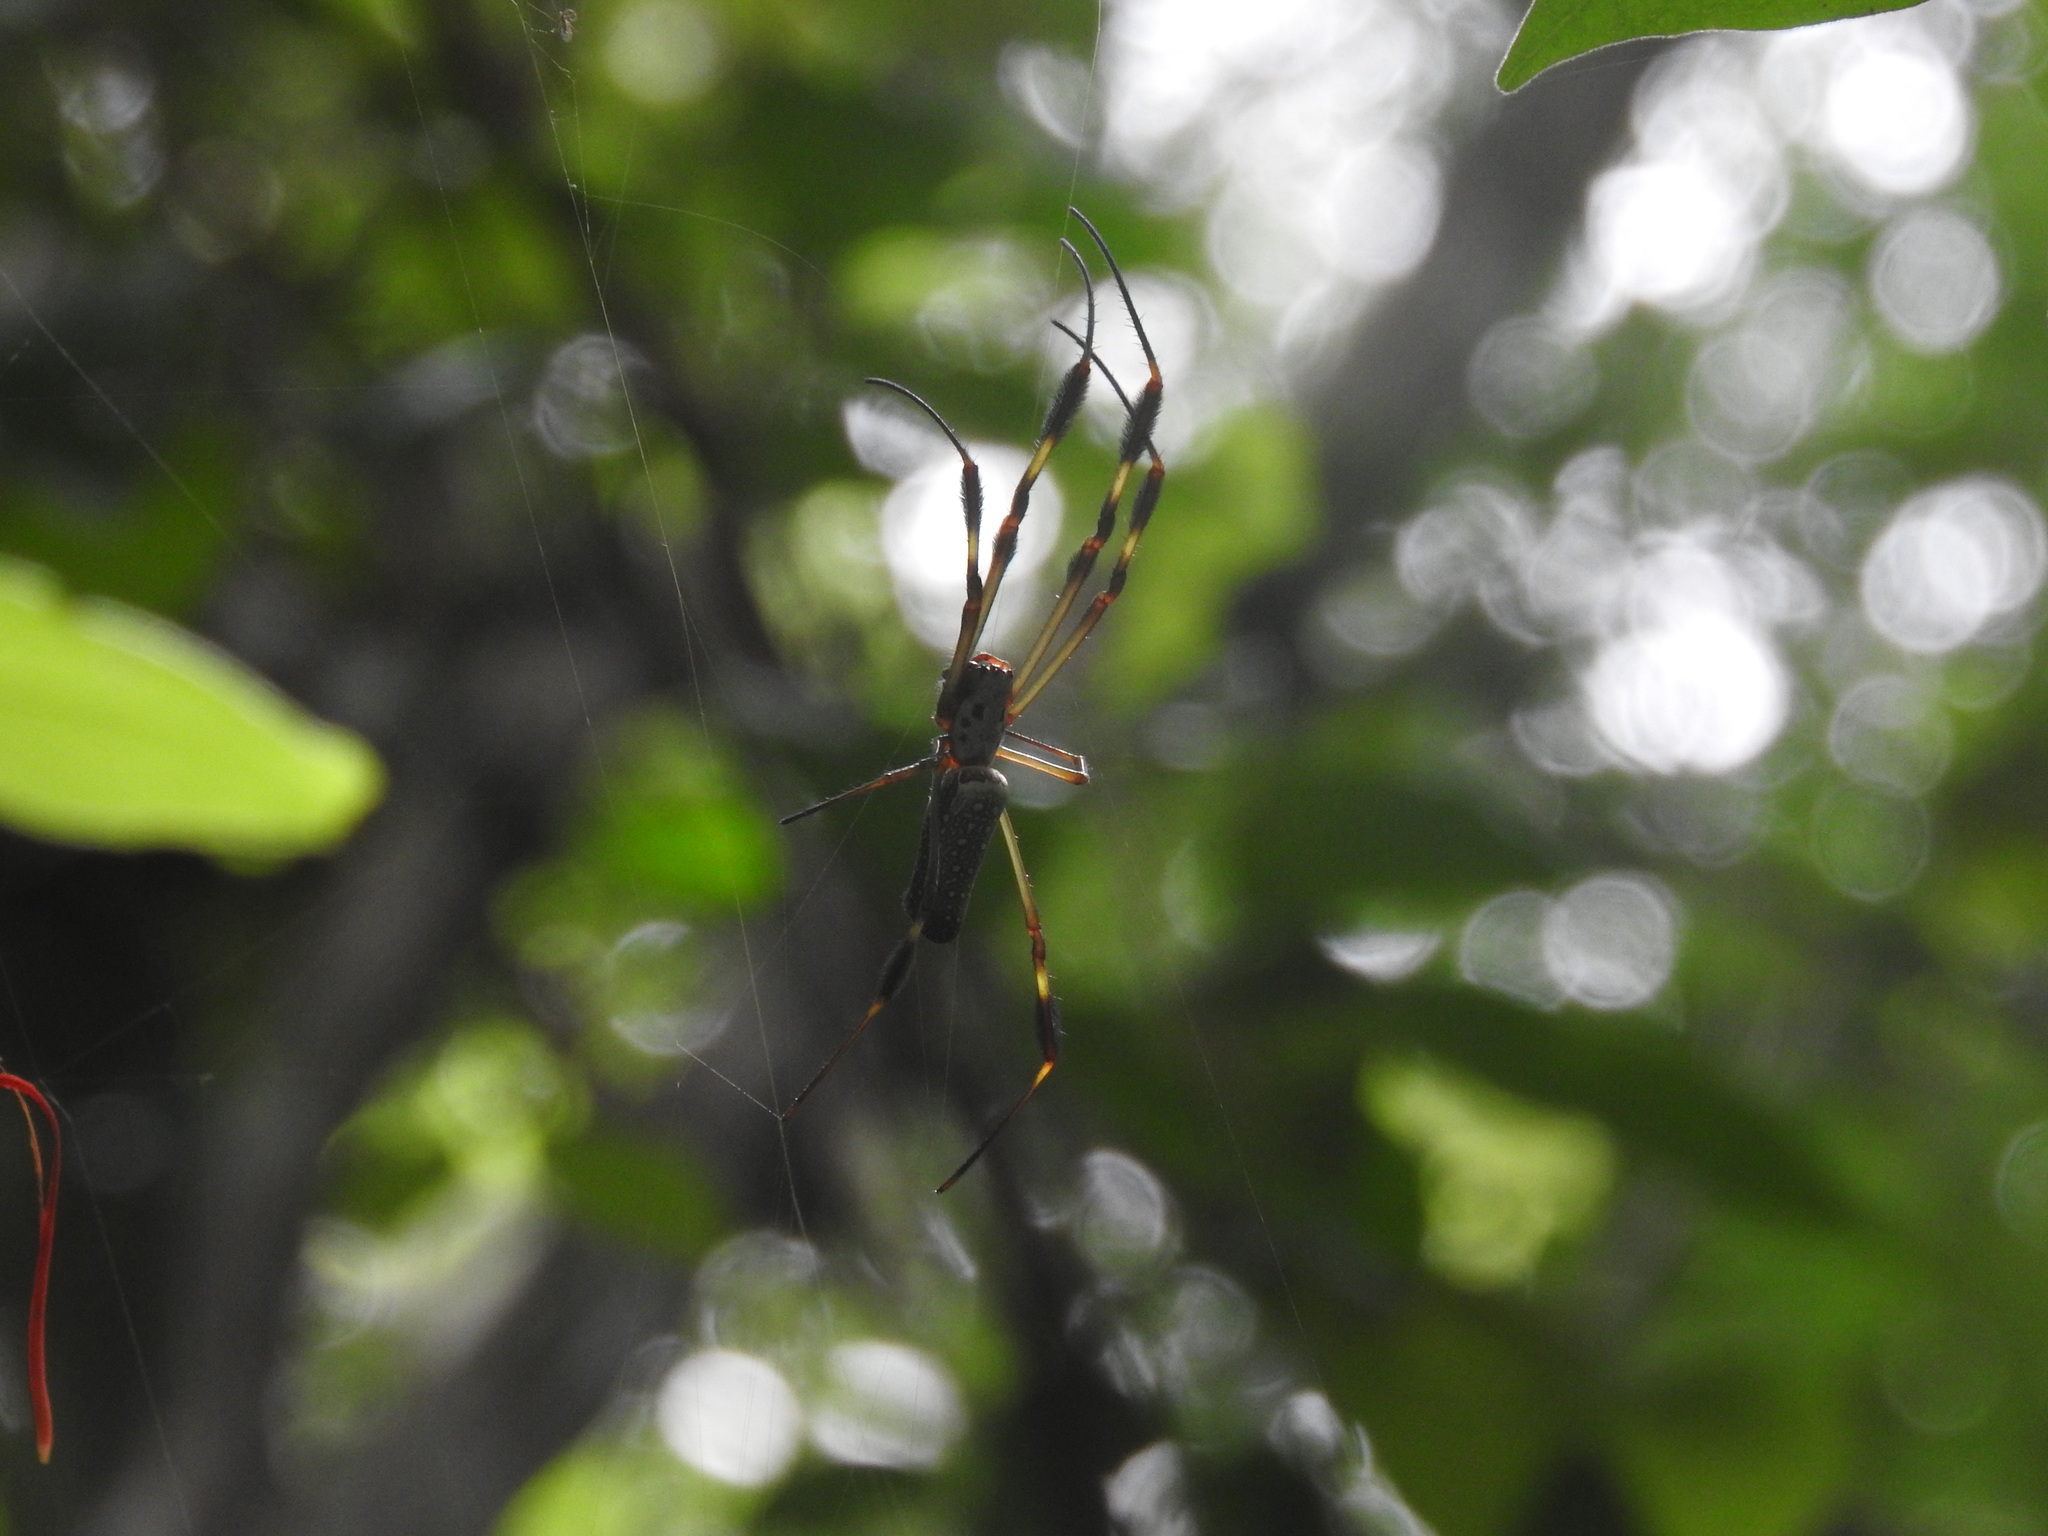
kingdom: Animalia
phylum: Arthropoda
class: Arachnida
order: Araneae
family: Araneidae
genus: Trichonephila
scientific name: Trichonephila clavipes
